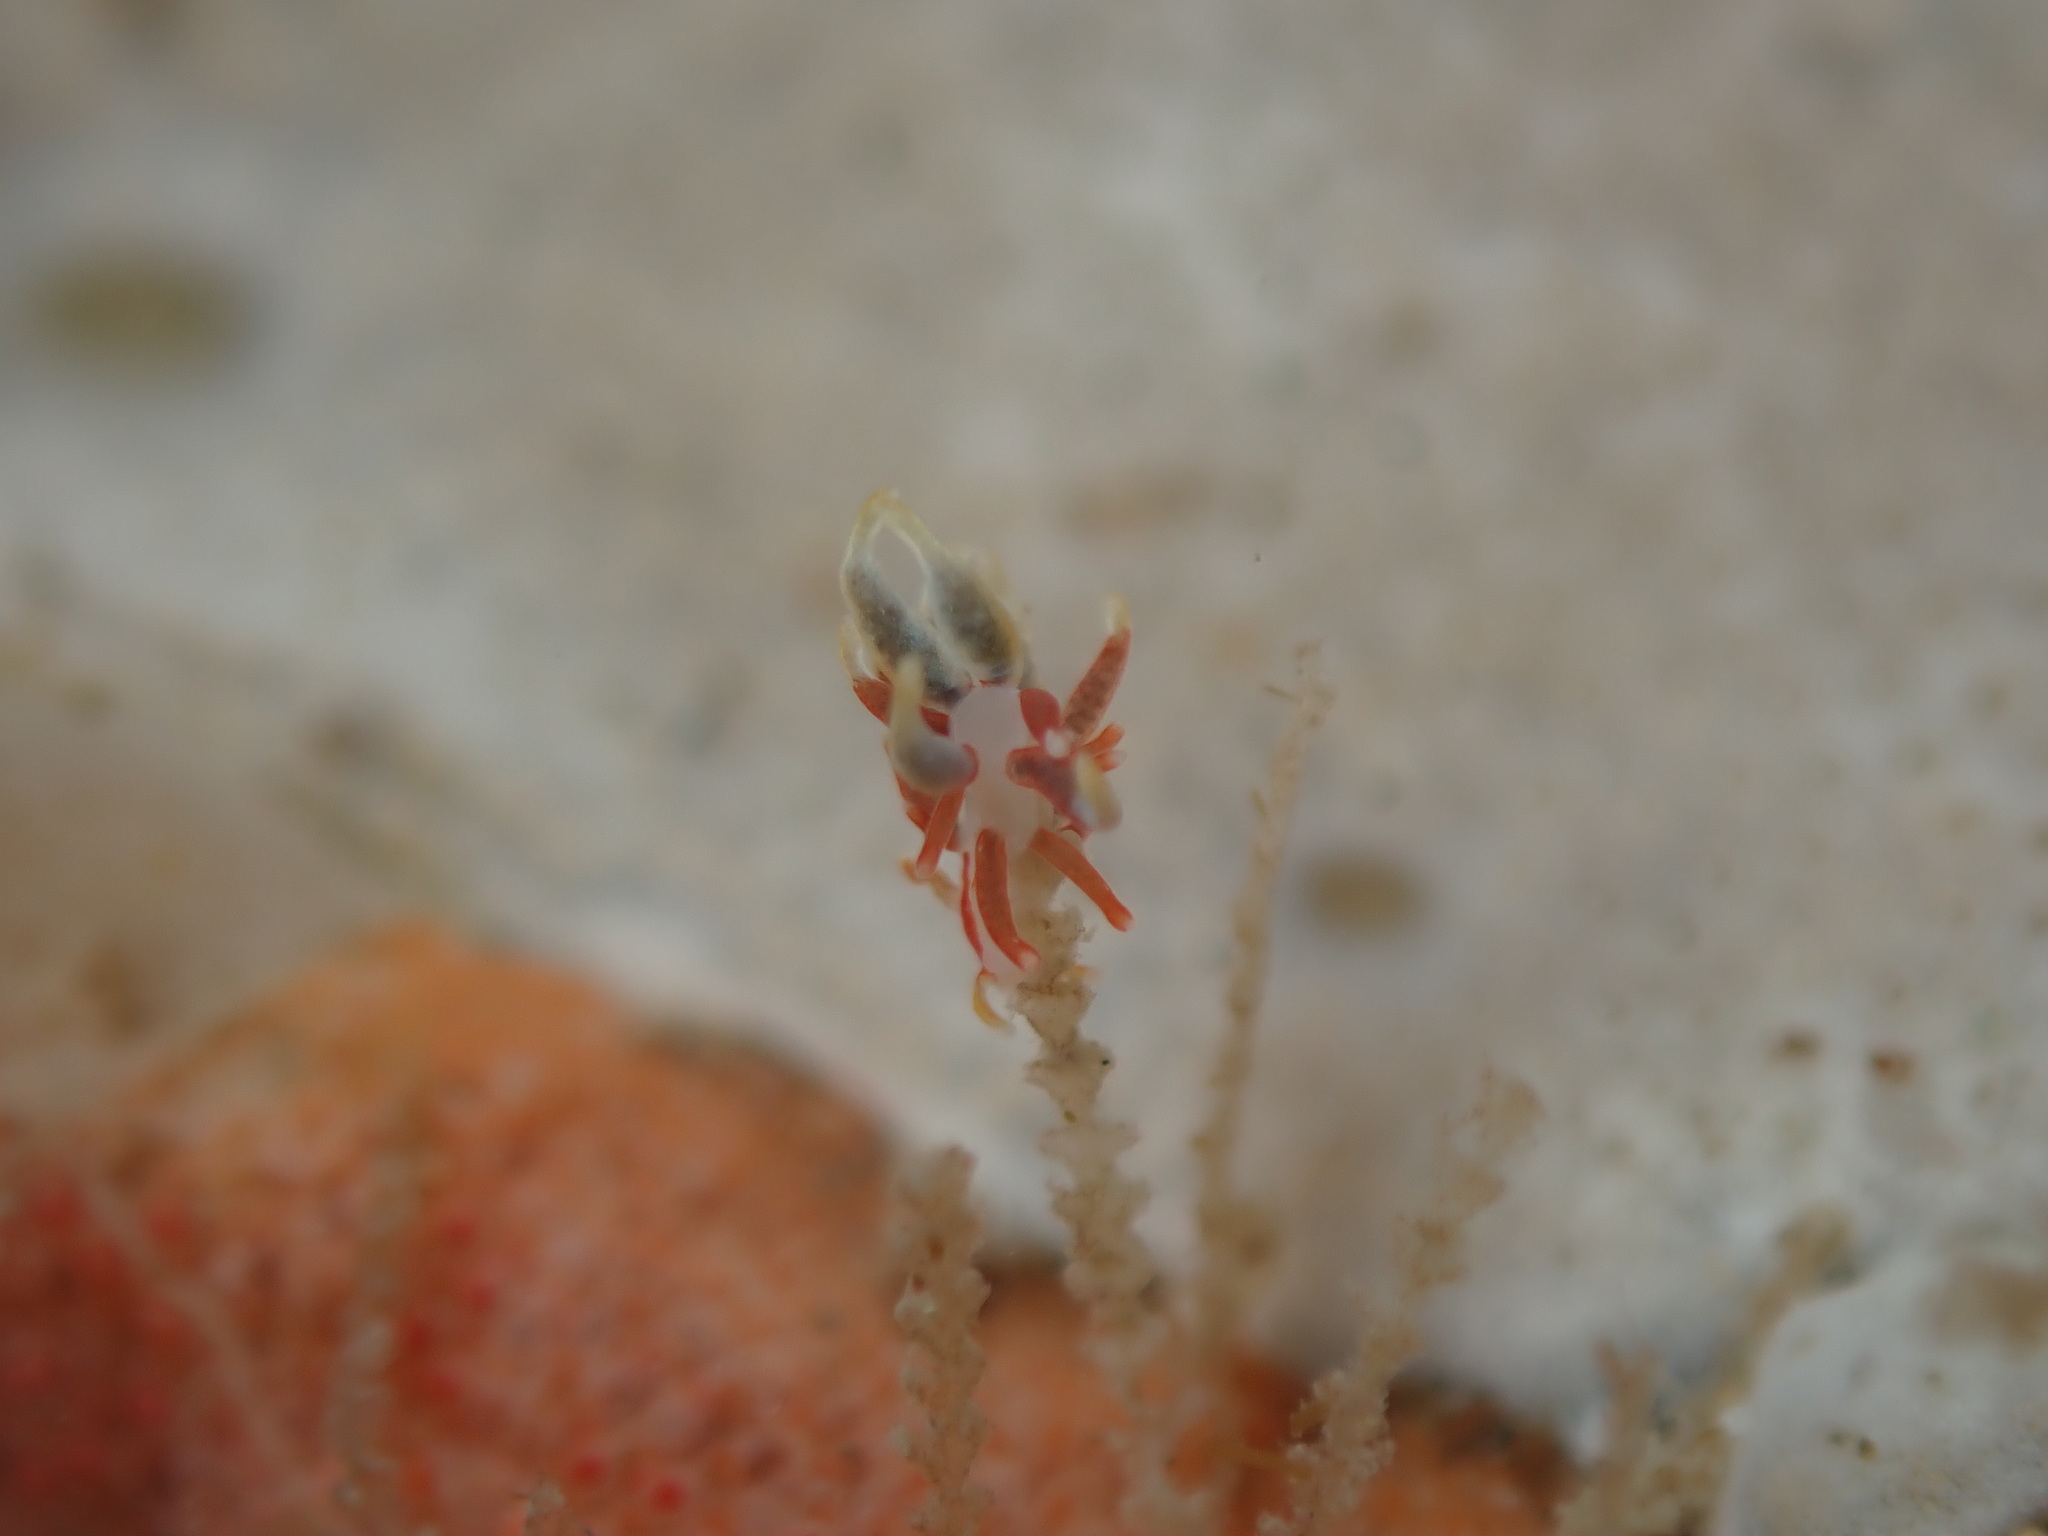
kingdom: Animalia
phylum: Mollusca
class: Gastropoda
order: Nudibranchia
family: Eubranchidae
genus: Eubranchus
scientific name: Eubranchus rubeolus
